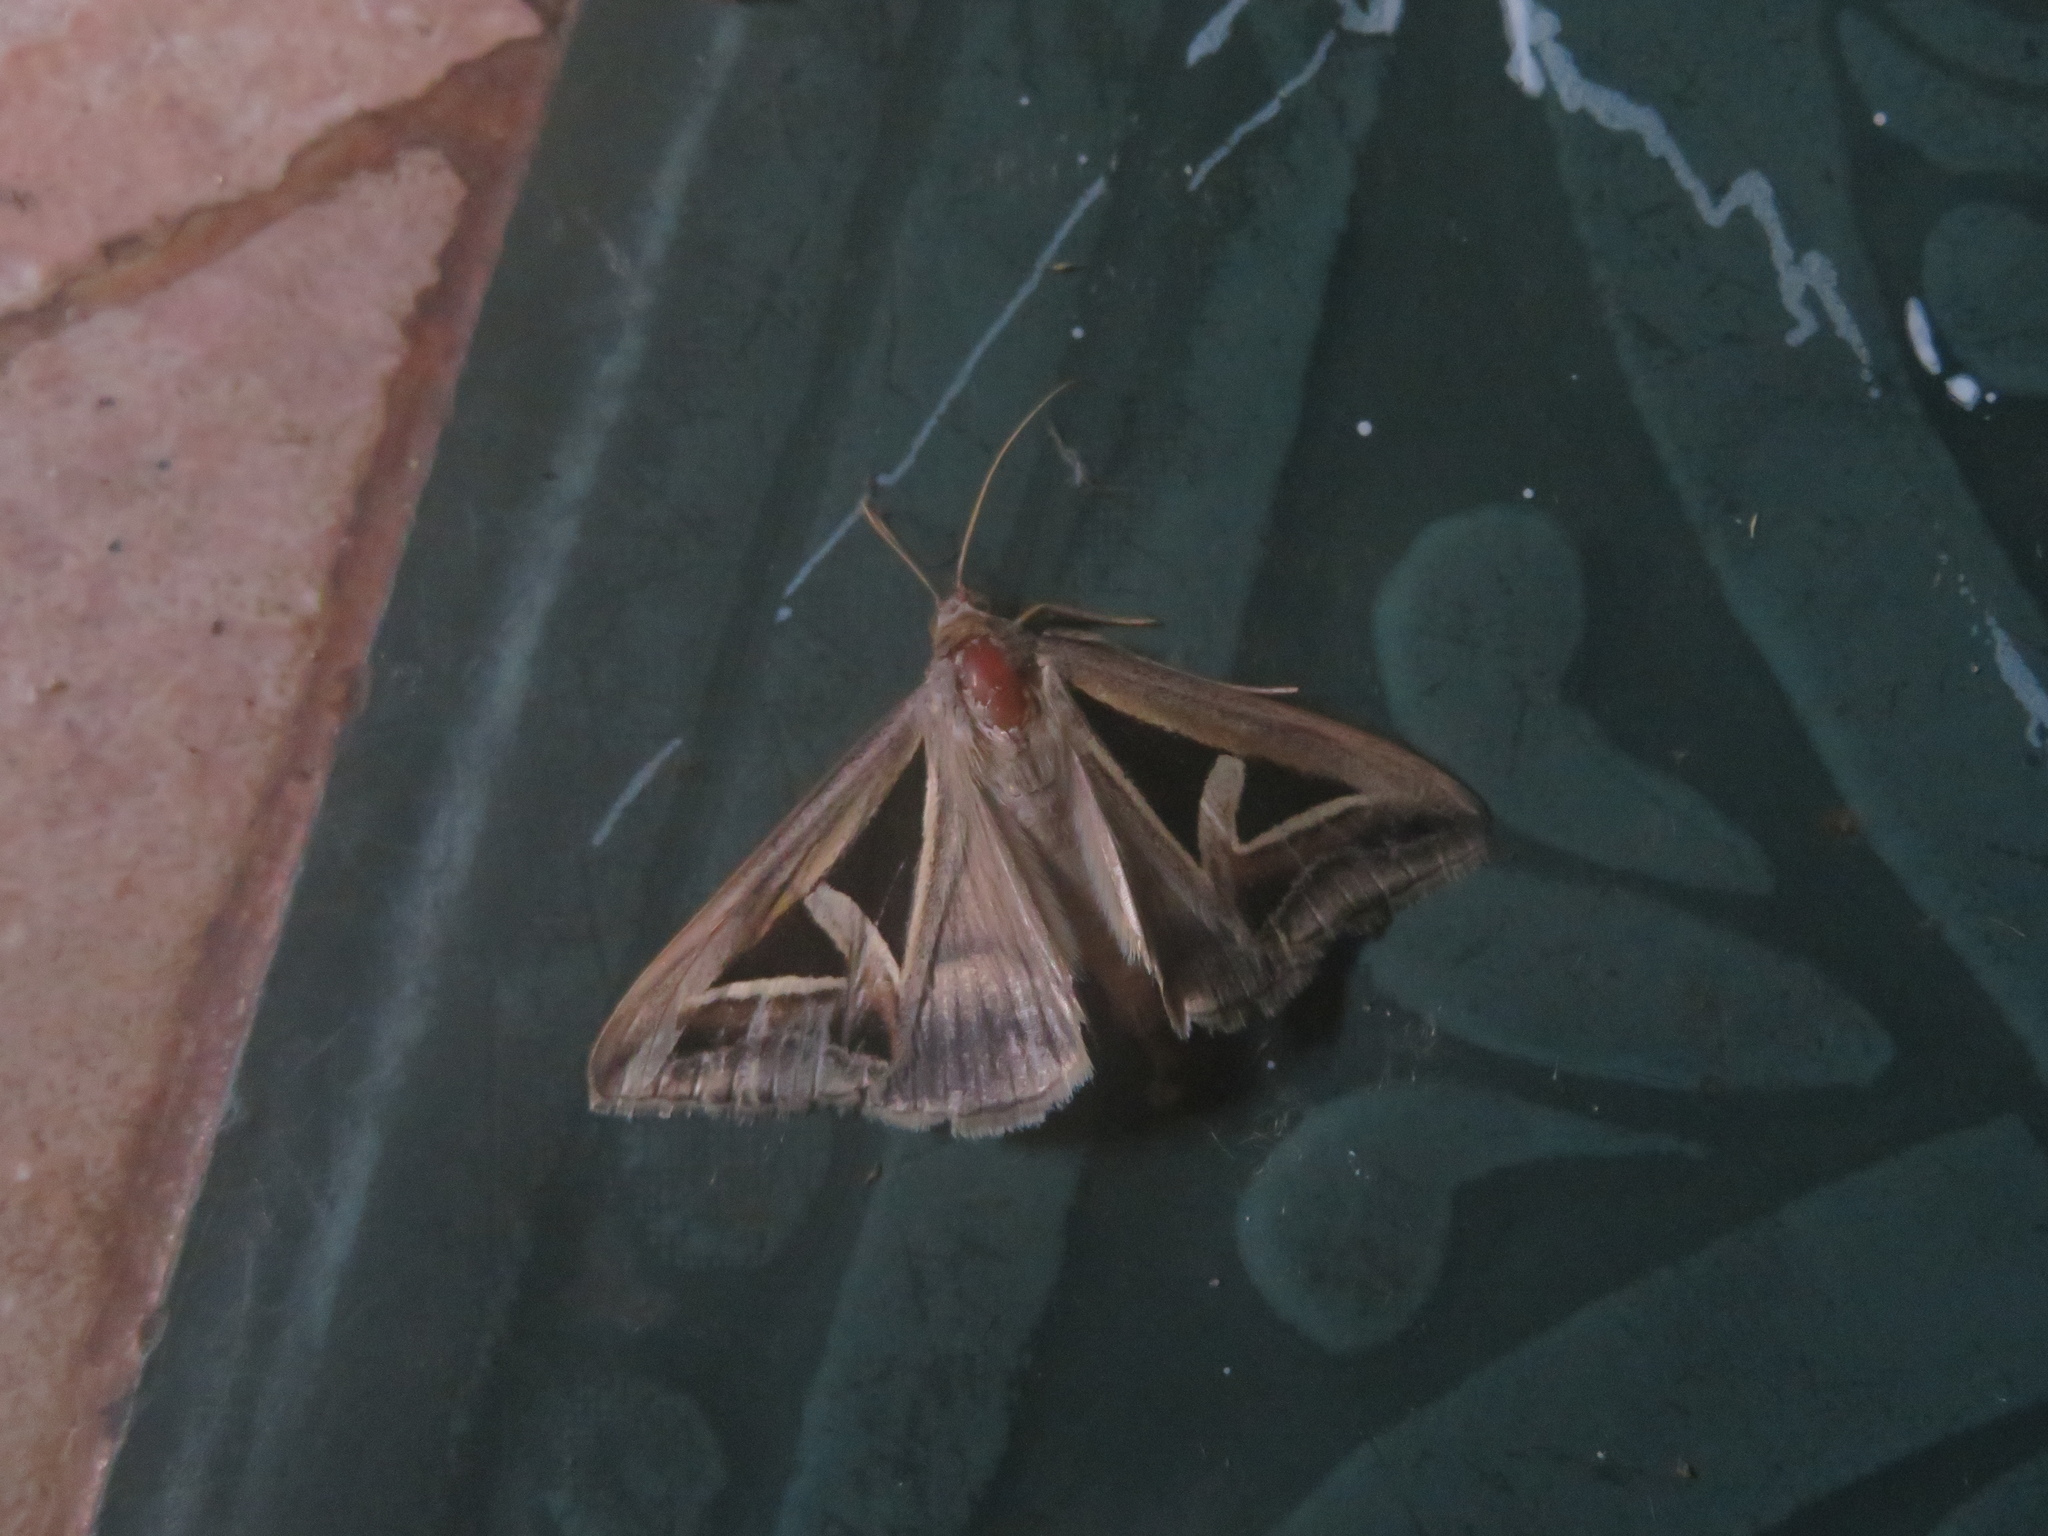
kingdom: Animalia
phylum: Arthropoda
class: Insecta
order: Lepidoptera
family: Erebidae
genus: Trigonodes
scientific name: Trigonodes hyppasia
